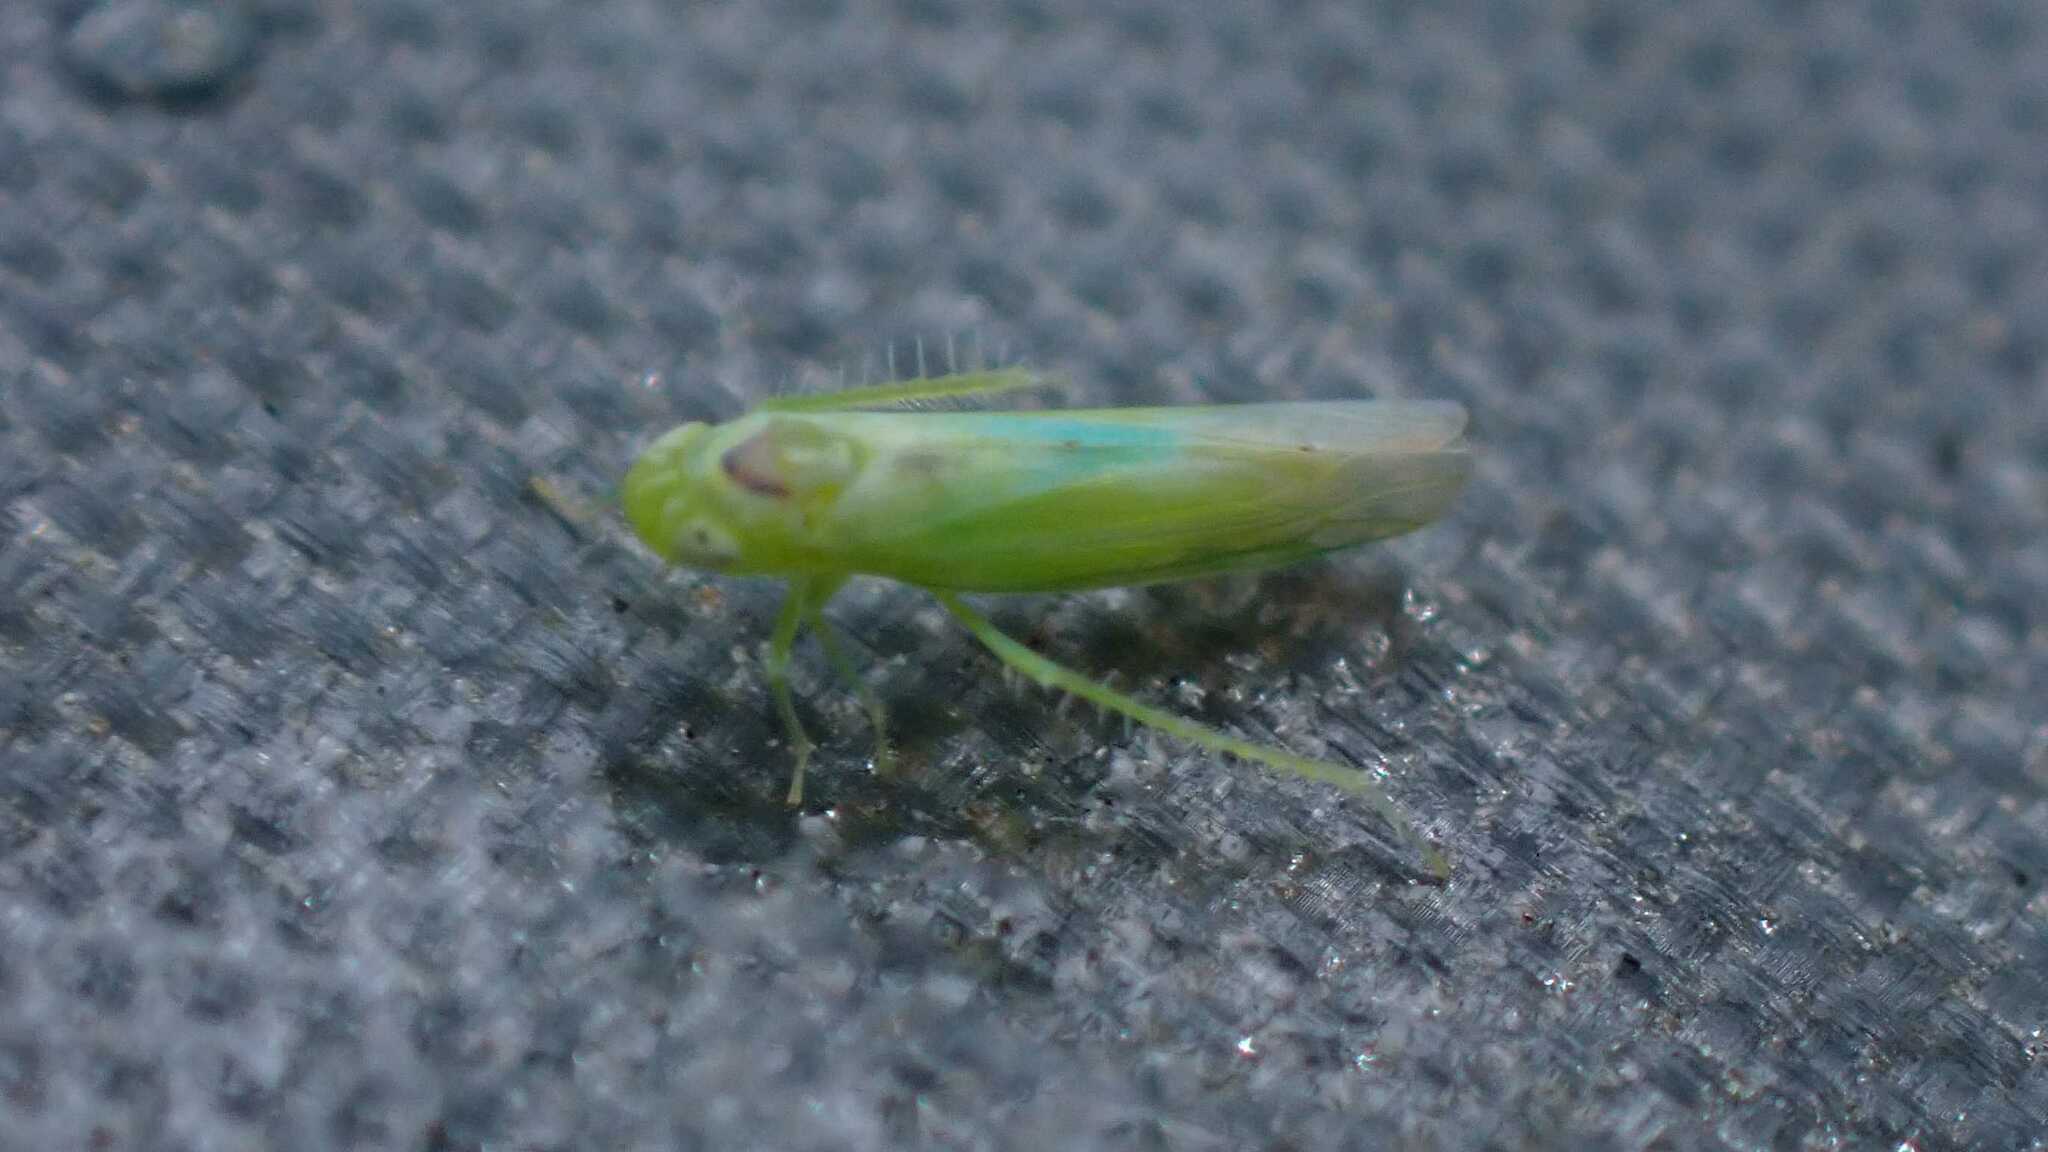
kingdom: Animalia
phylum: Arthropoda
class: Insecta
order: Hemiptera
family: Cicadellidae
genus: Hebata
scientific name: Hebata vitis
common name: The smaller green leafhopper
